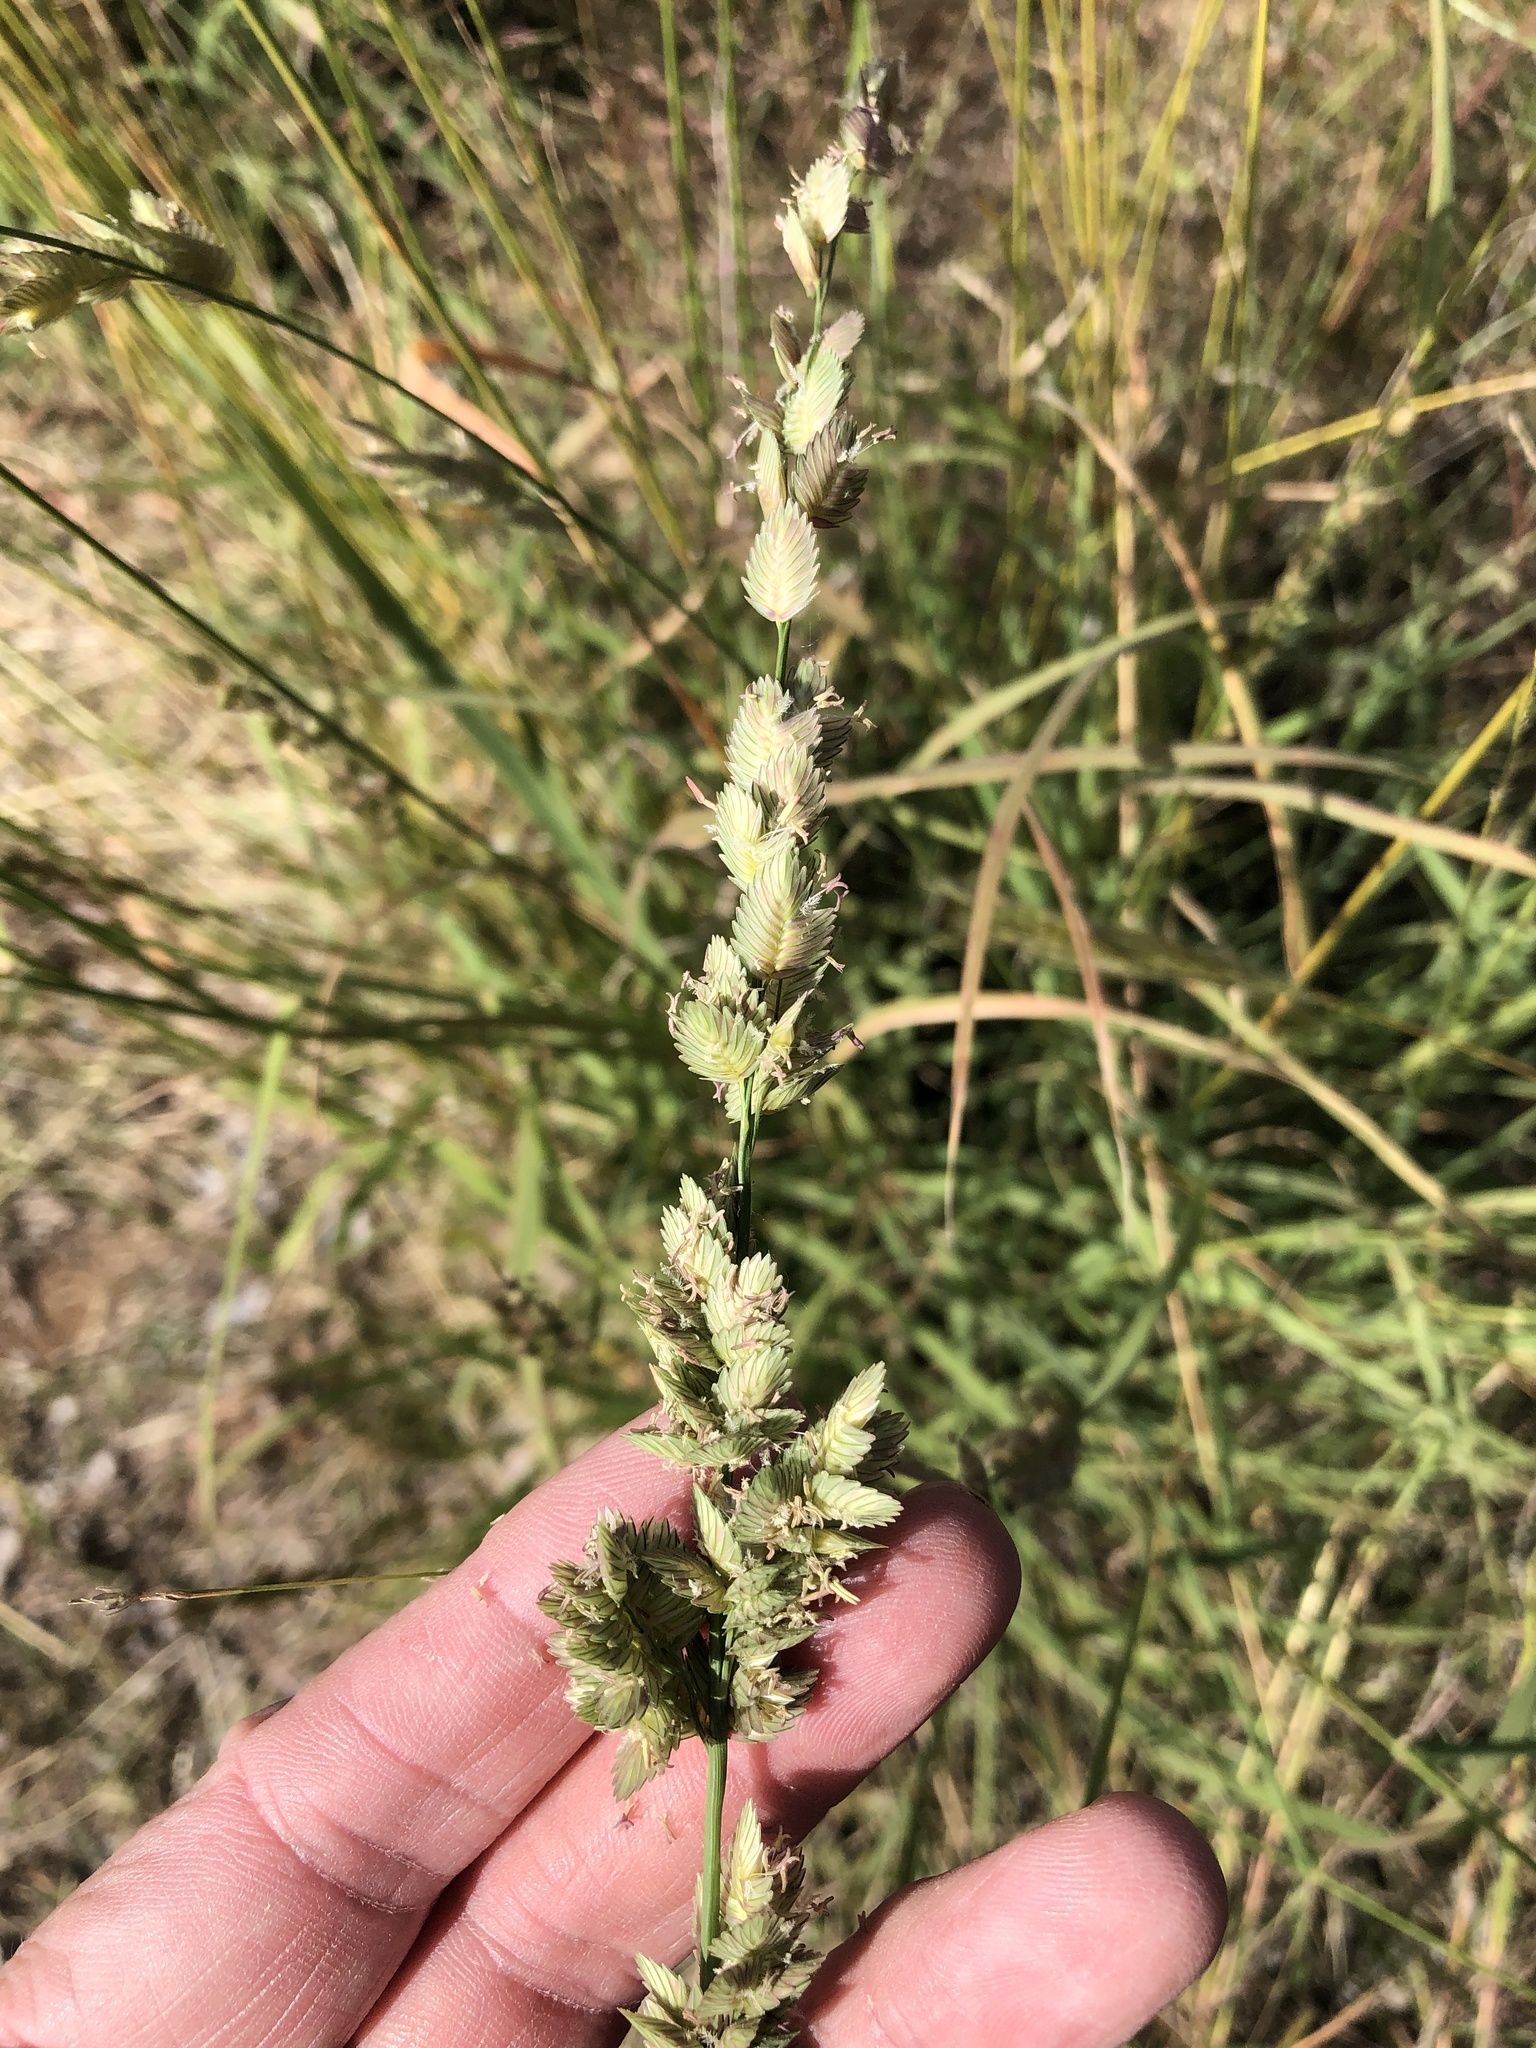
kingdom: Plantae
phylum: Tracheophyta
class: Liliopsida
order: Poales
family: Poaceae
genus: Eragrostis
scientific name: Eragrostis superba
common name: Wilman lovegrass
